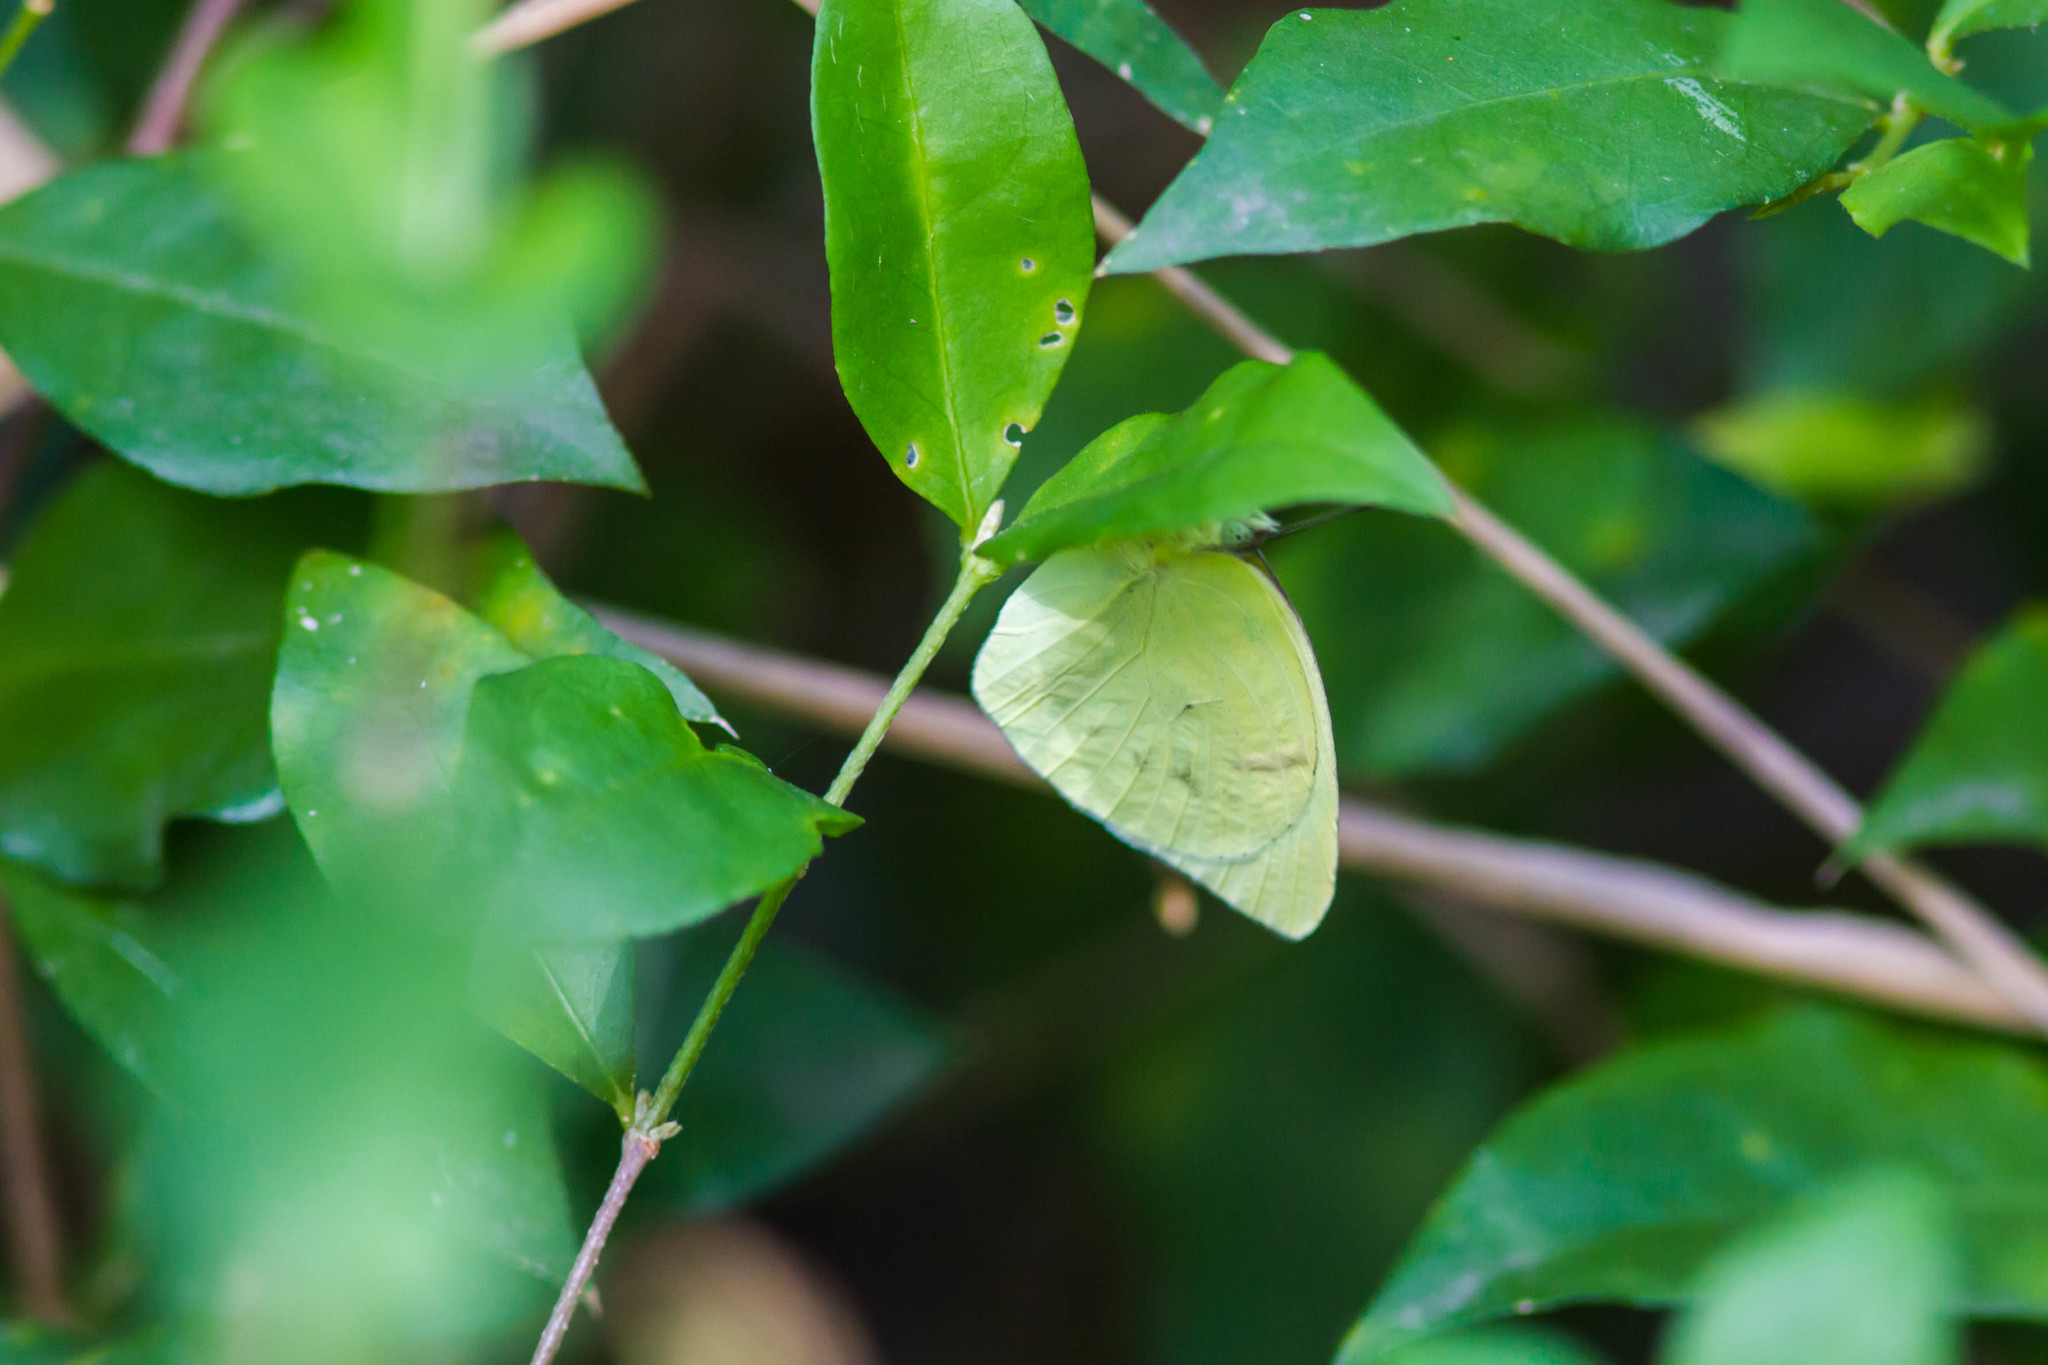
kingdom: Animalia
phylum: Arthropoda
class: Insecta
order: Lepidoptera
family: Pieridae
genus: Kricogonia
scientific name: Kricogonia lyside
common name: Guayacan sulphur,
